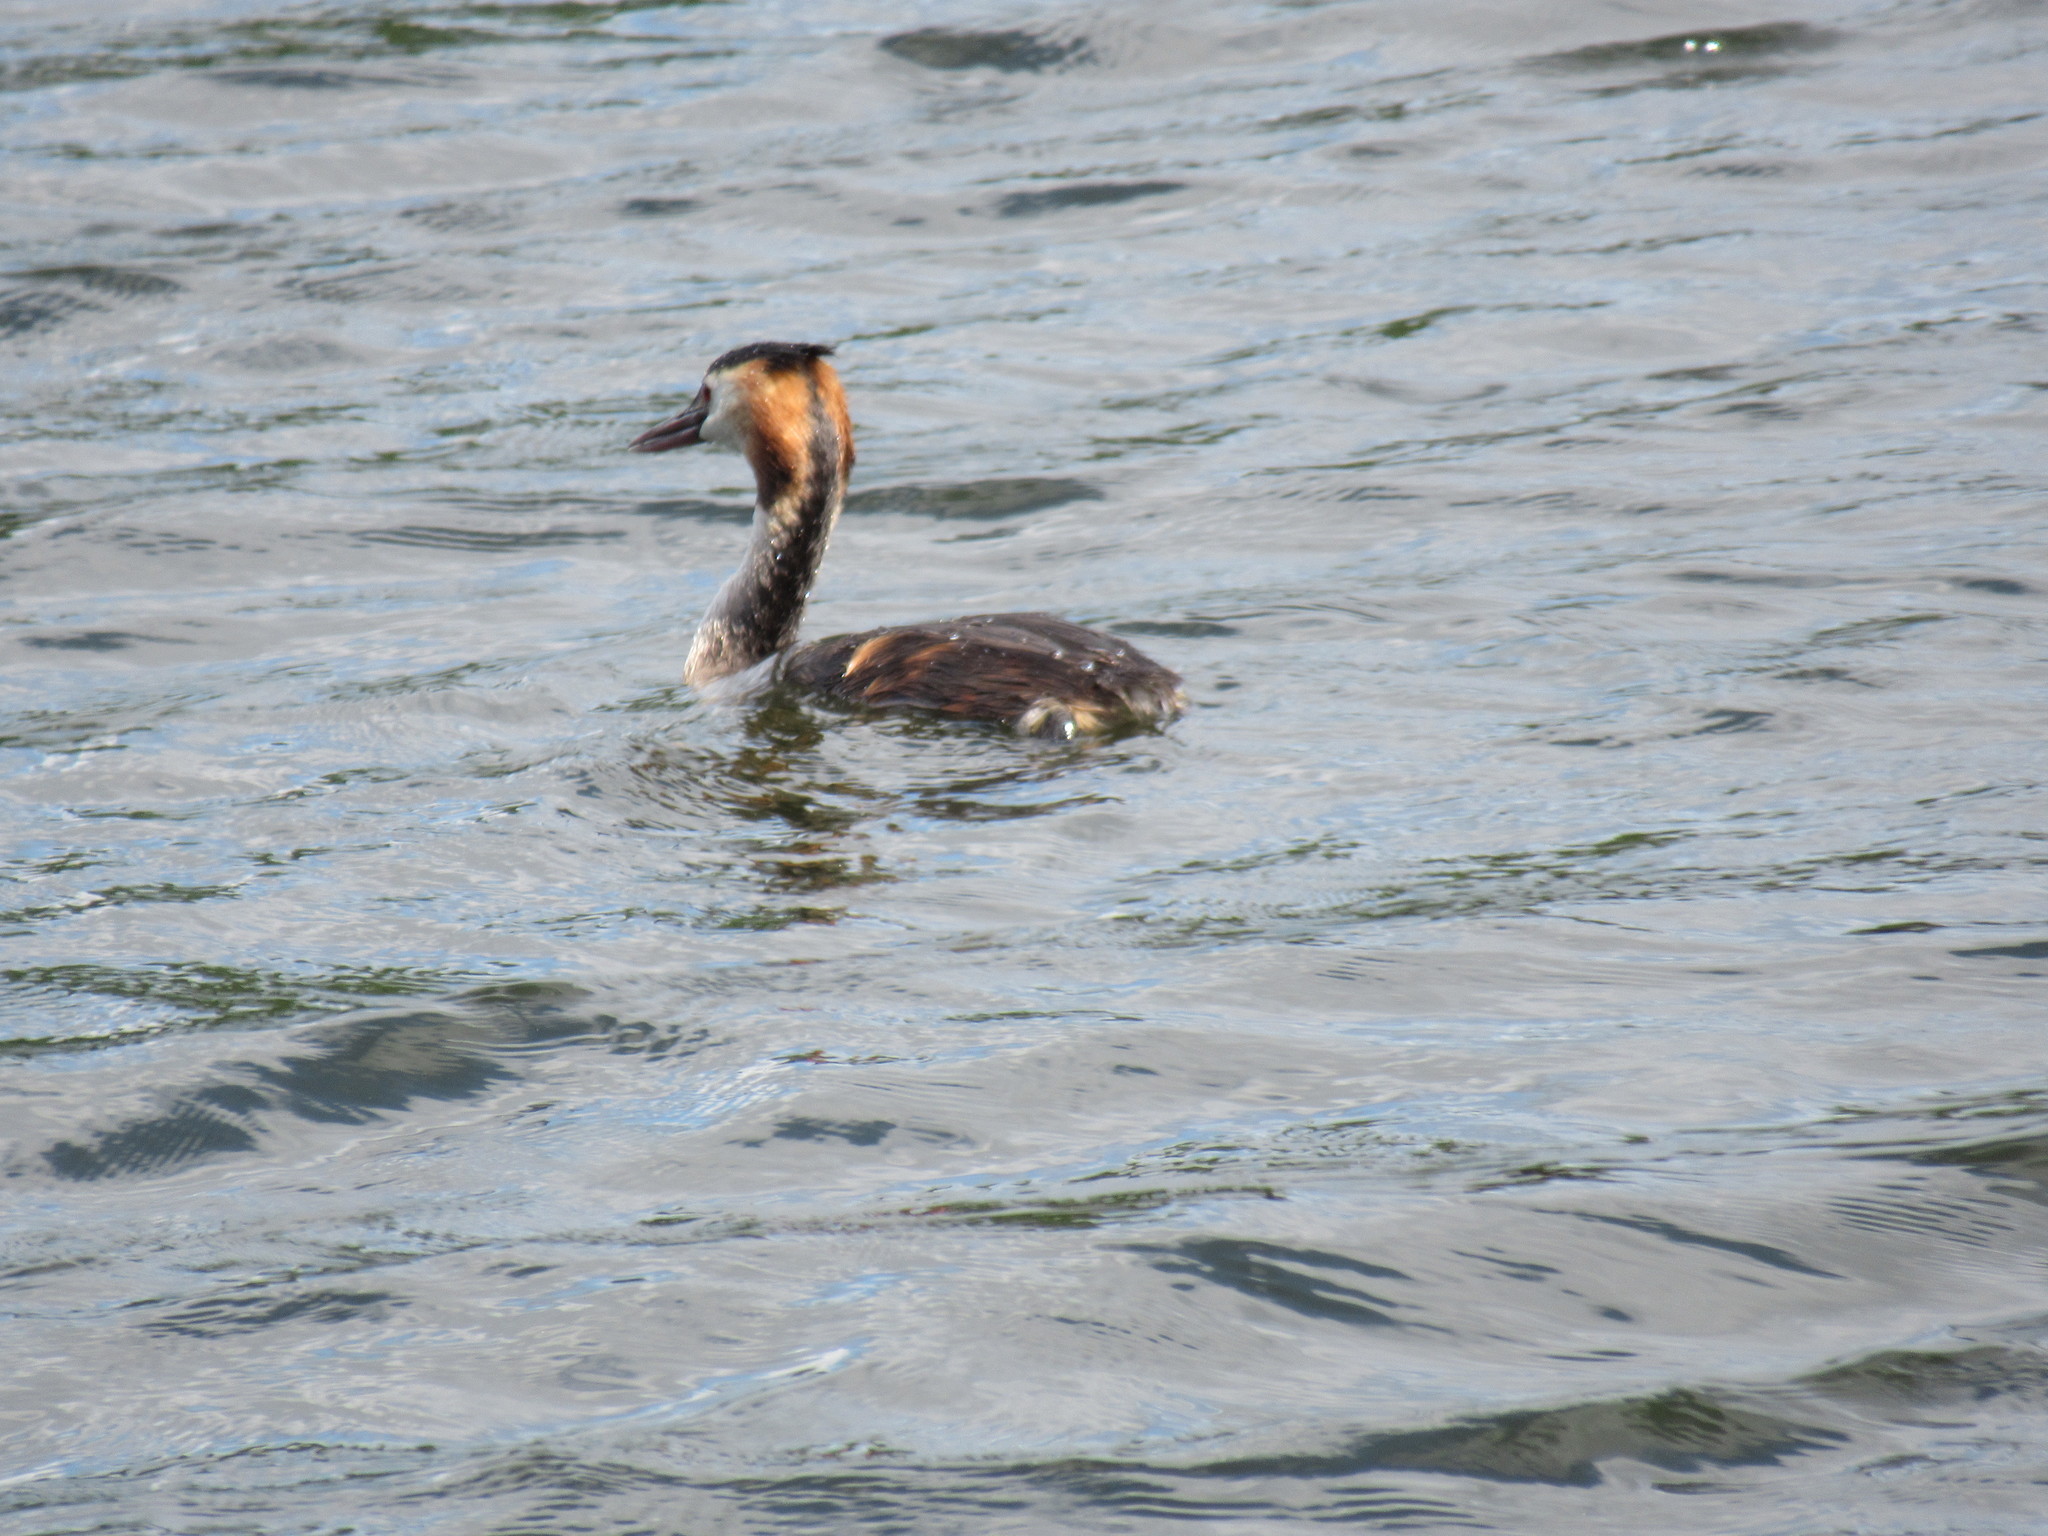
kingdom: Animalia
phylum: Chordata
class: Aves
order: Podicipediformes
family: Podicipedidae
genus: Podiceps
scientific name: Podiceps cristatus
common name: Great crested grebe
